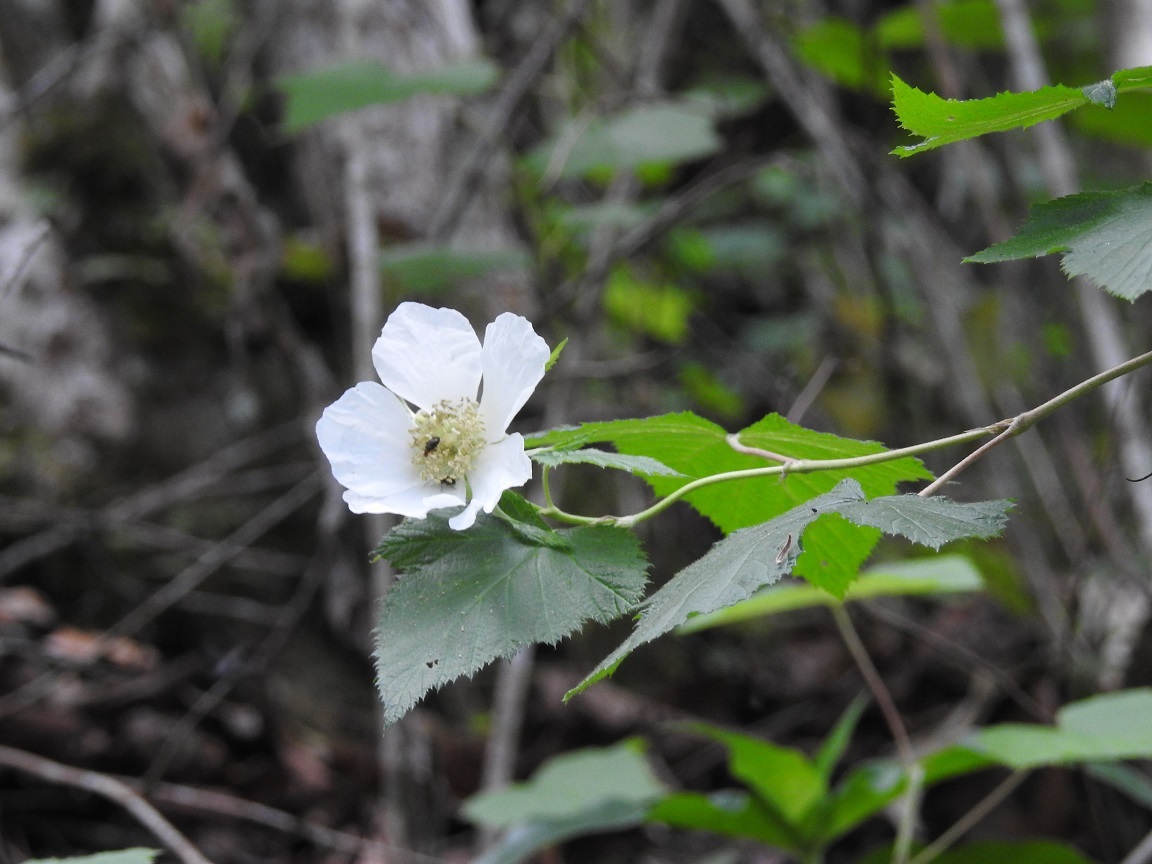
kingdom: Plantae
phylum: Tracheophyta
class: Magnoliopsida
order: Rosales
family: Rosaceae
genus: Rubus
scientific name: Rubus trilobus
